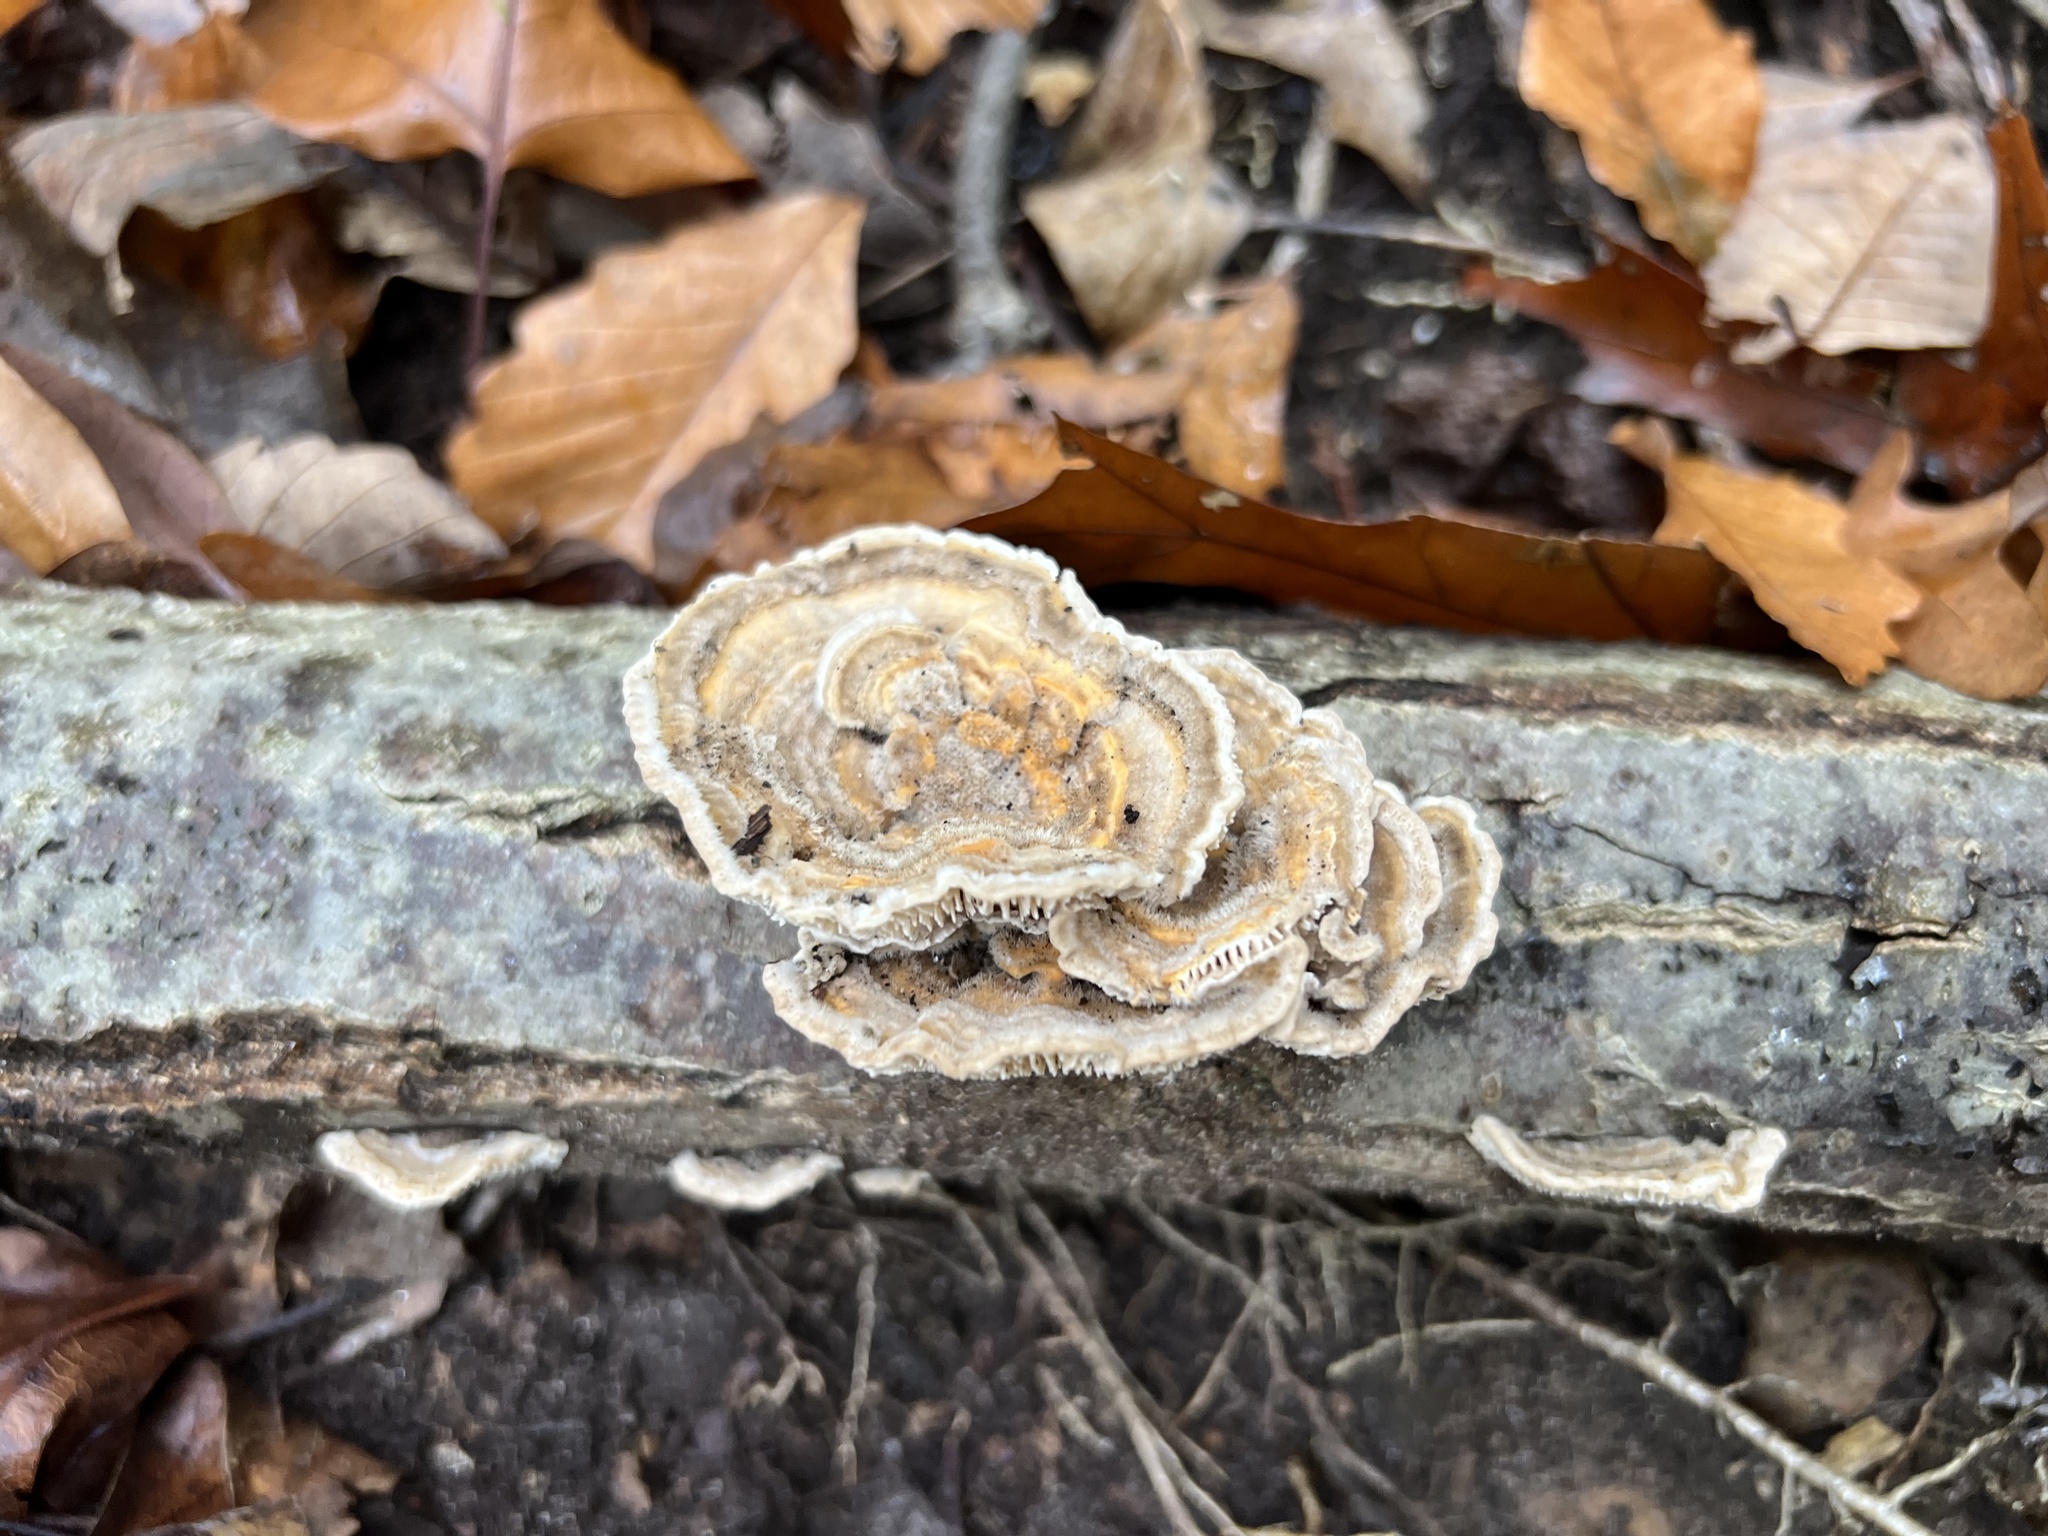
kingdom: Fungi
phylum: Basidiomycota
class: Agaricomycetes
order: Polyporales
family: Polyporaceae
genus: Lenzites
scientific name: Lenzites betulinus
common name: Birch mazegill
